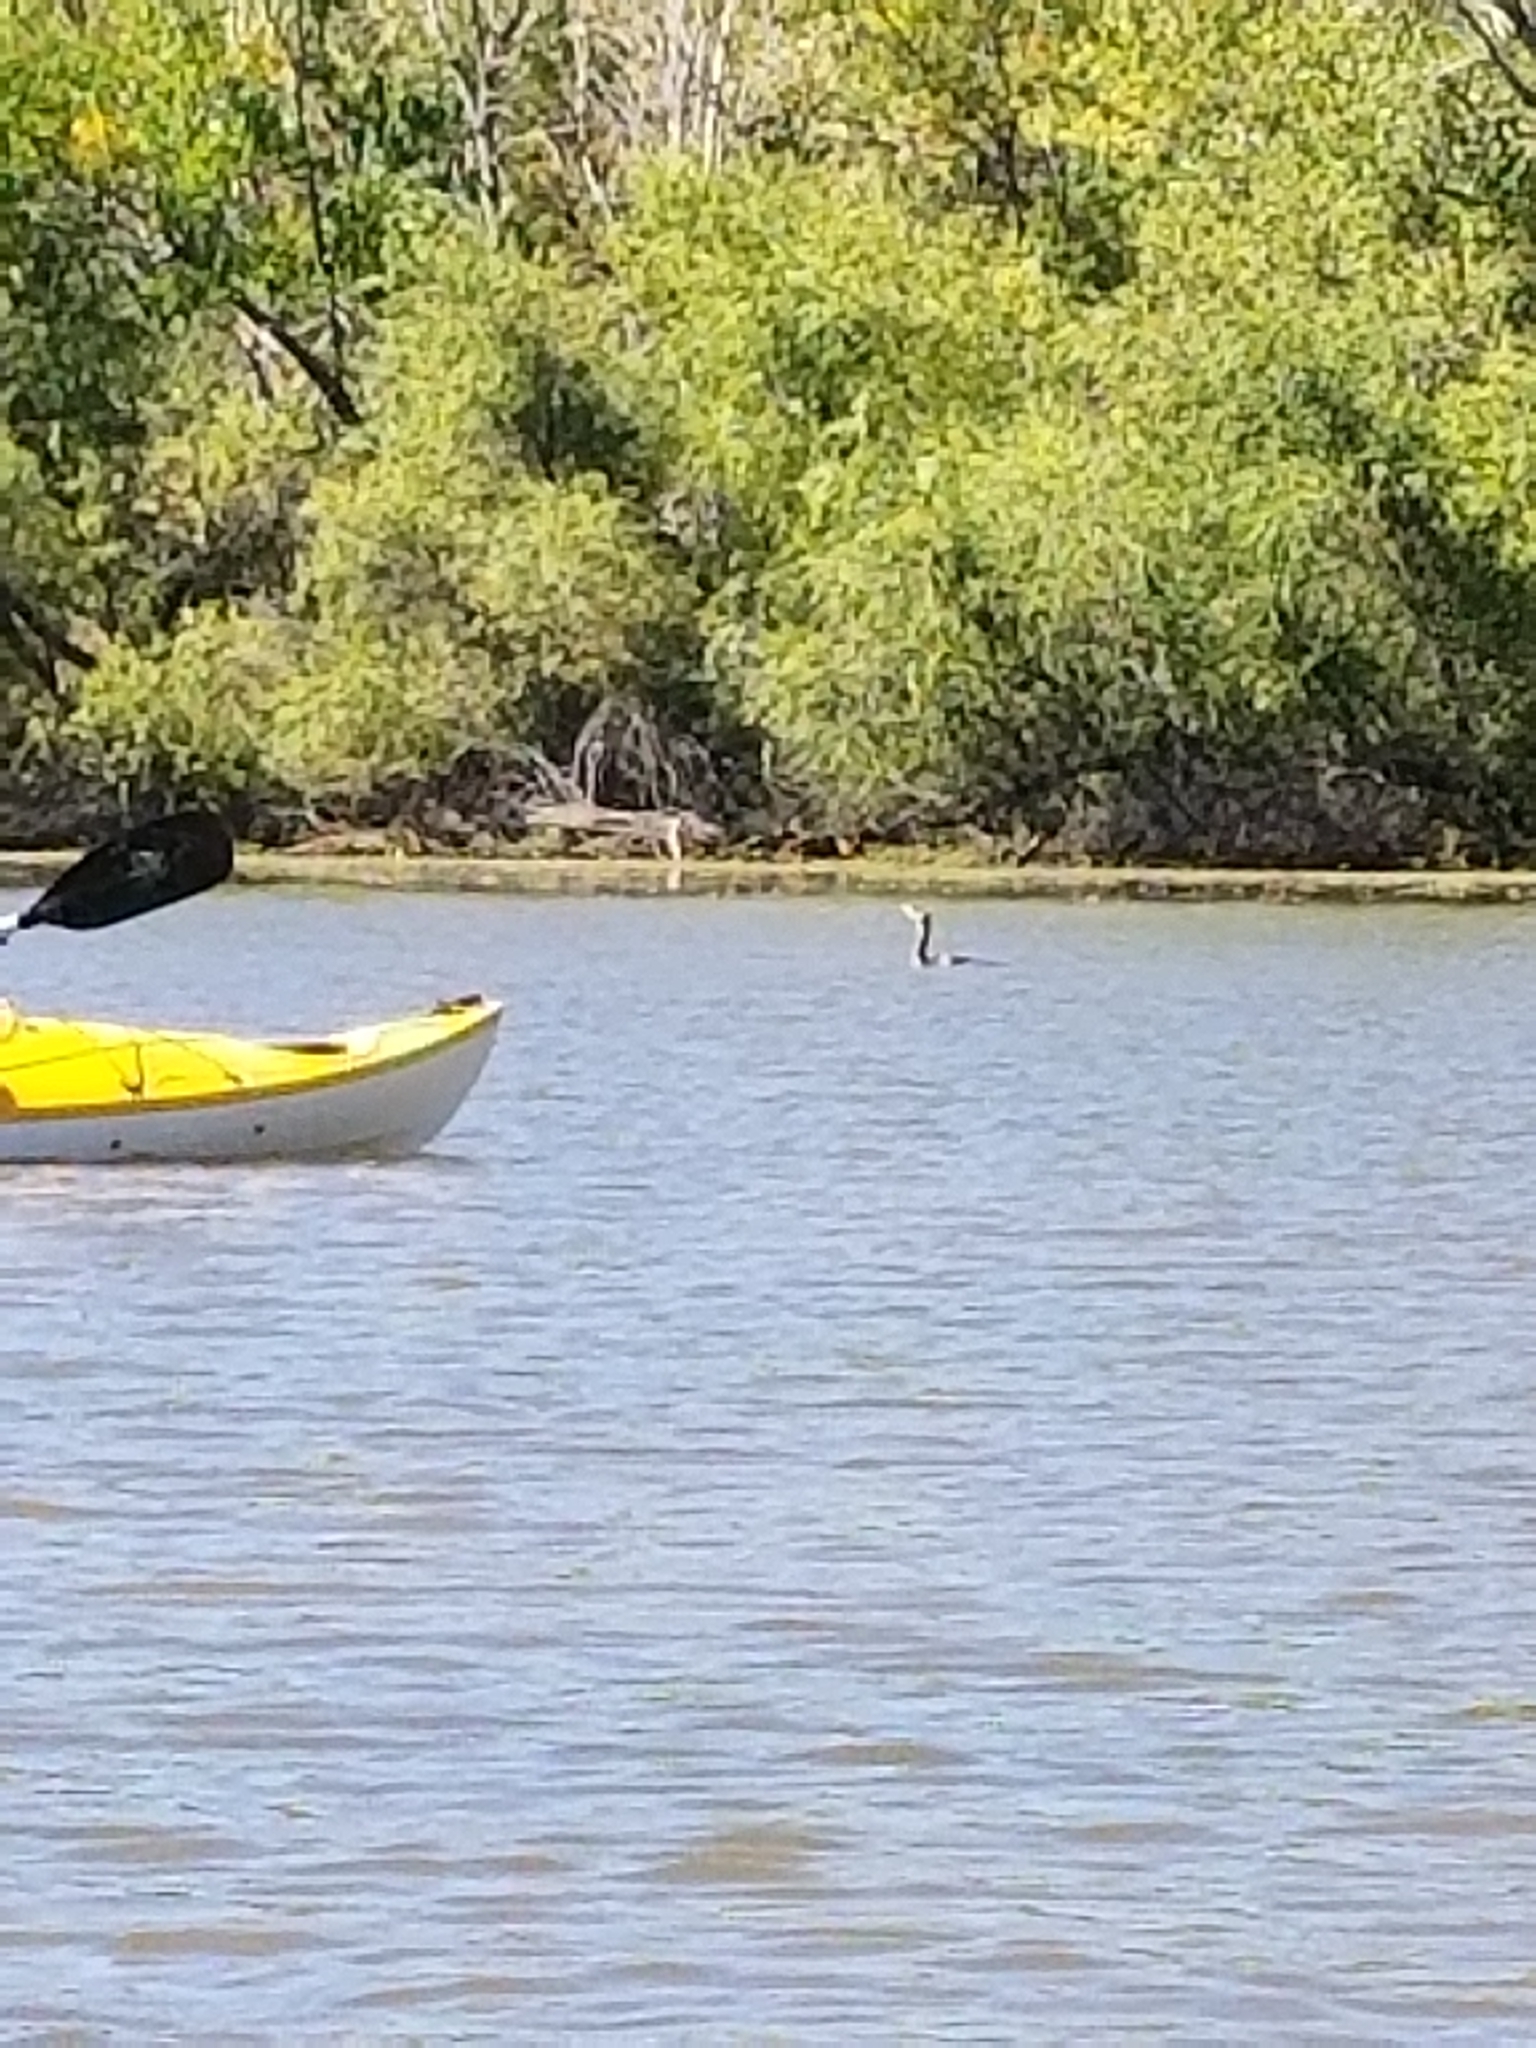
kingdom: Animalia
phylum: Chordata
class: Aves
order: Suliformes
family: Phalacrocoracidae
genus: Phalacrocorax
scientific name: Phalacrocorax auritus
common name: Double-crested cormorant
